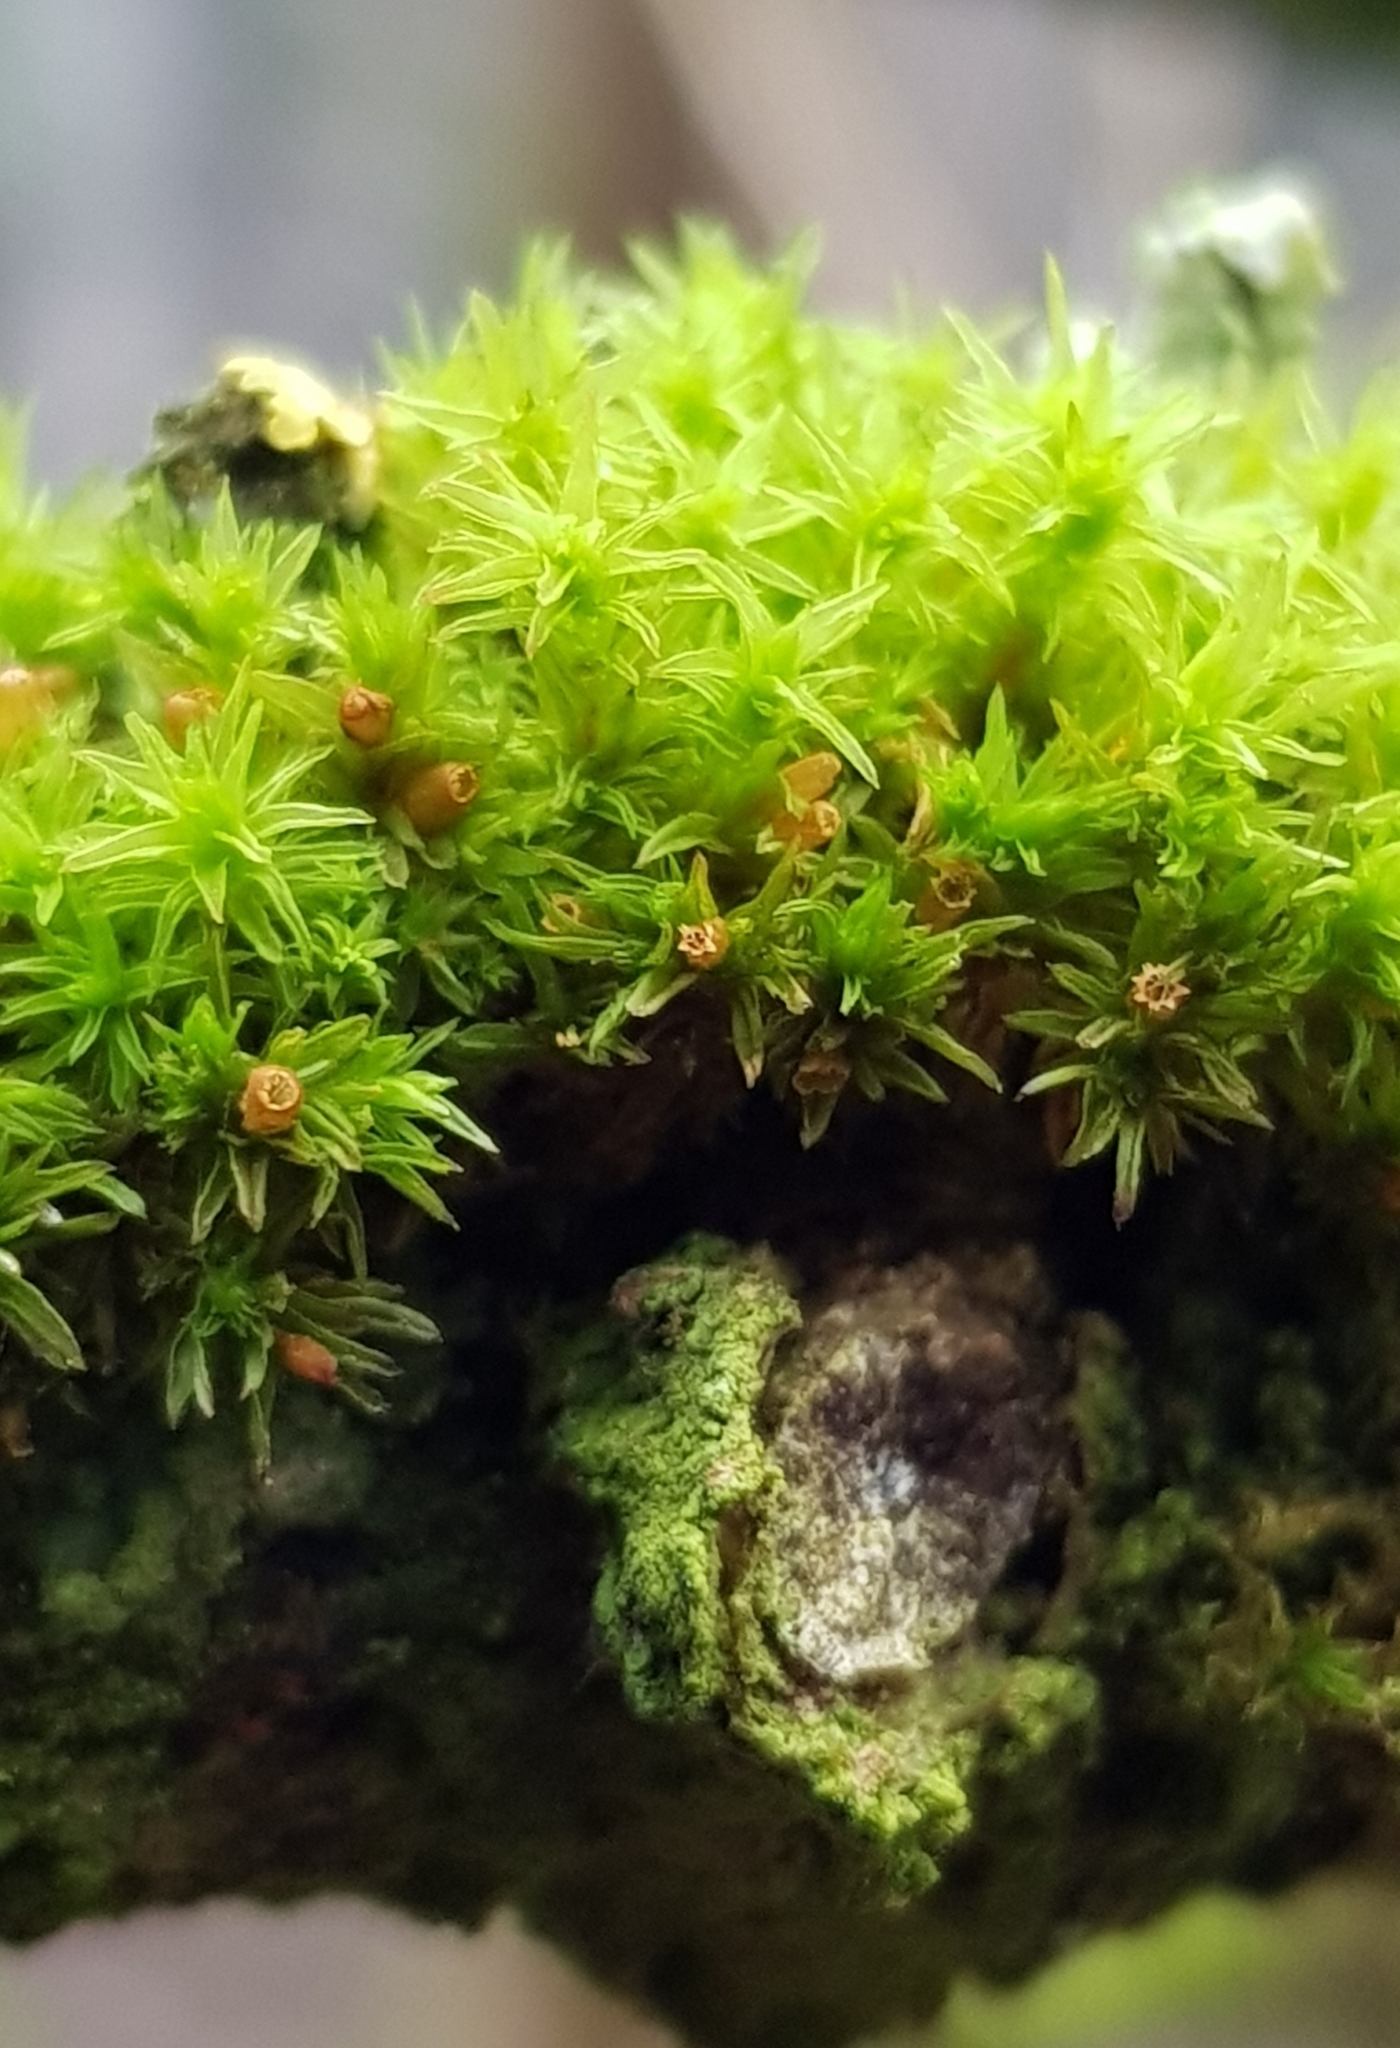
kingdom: Plantae
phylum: Bryophyta
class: Bryopsida
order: Orthotrichales
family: Orthotrichaceae
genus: Lewinskya
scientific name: Lewinskya affinis
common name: Wood bristle-moss
